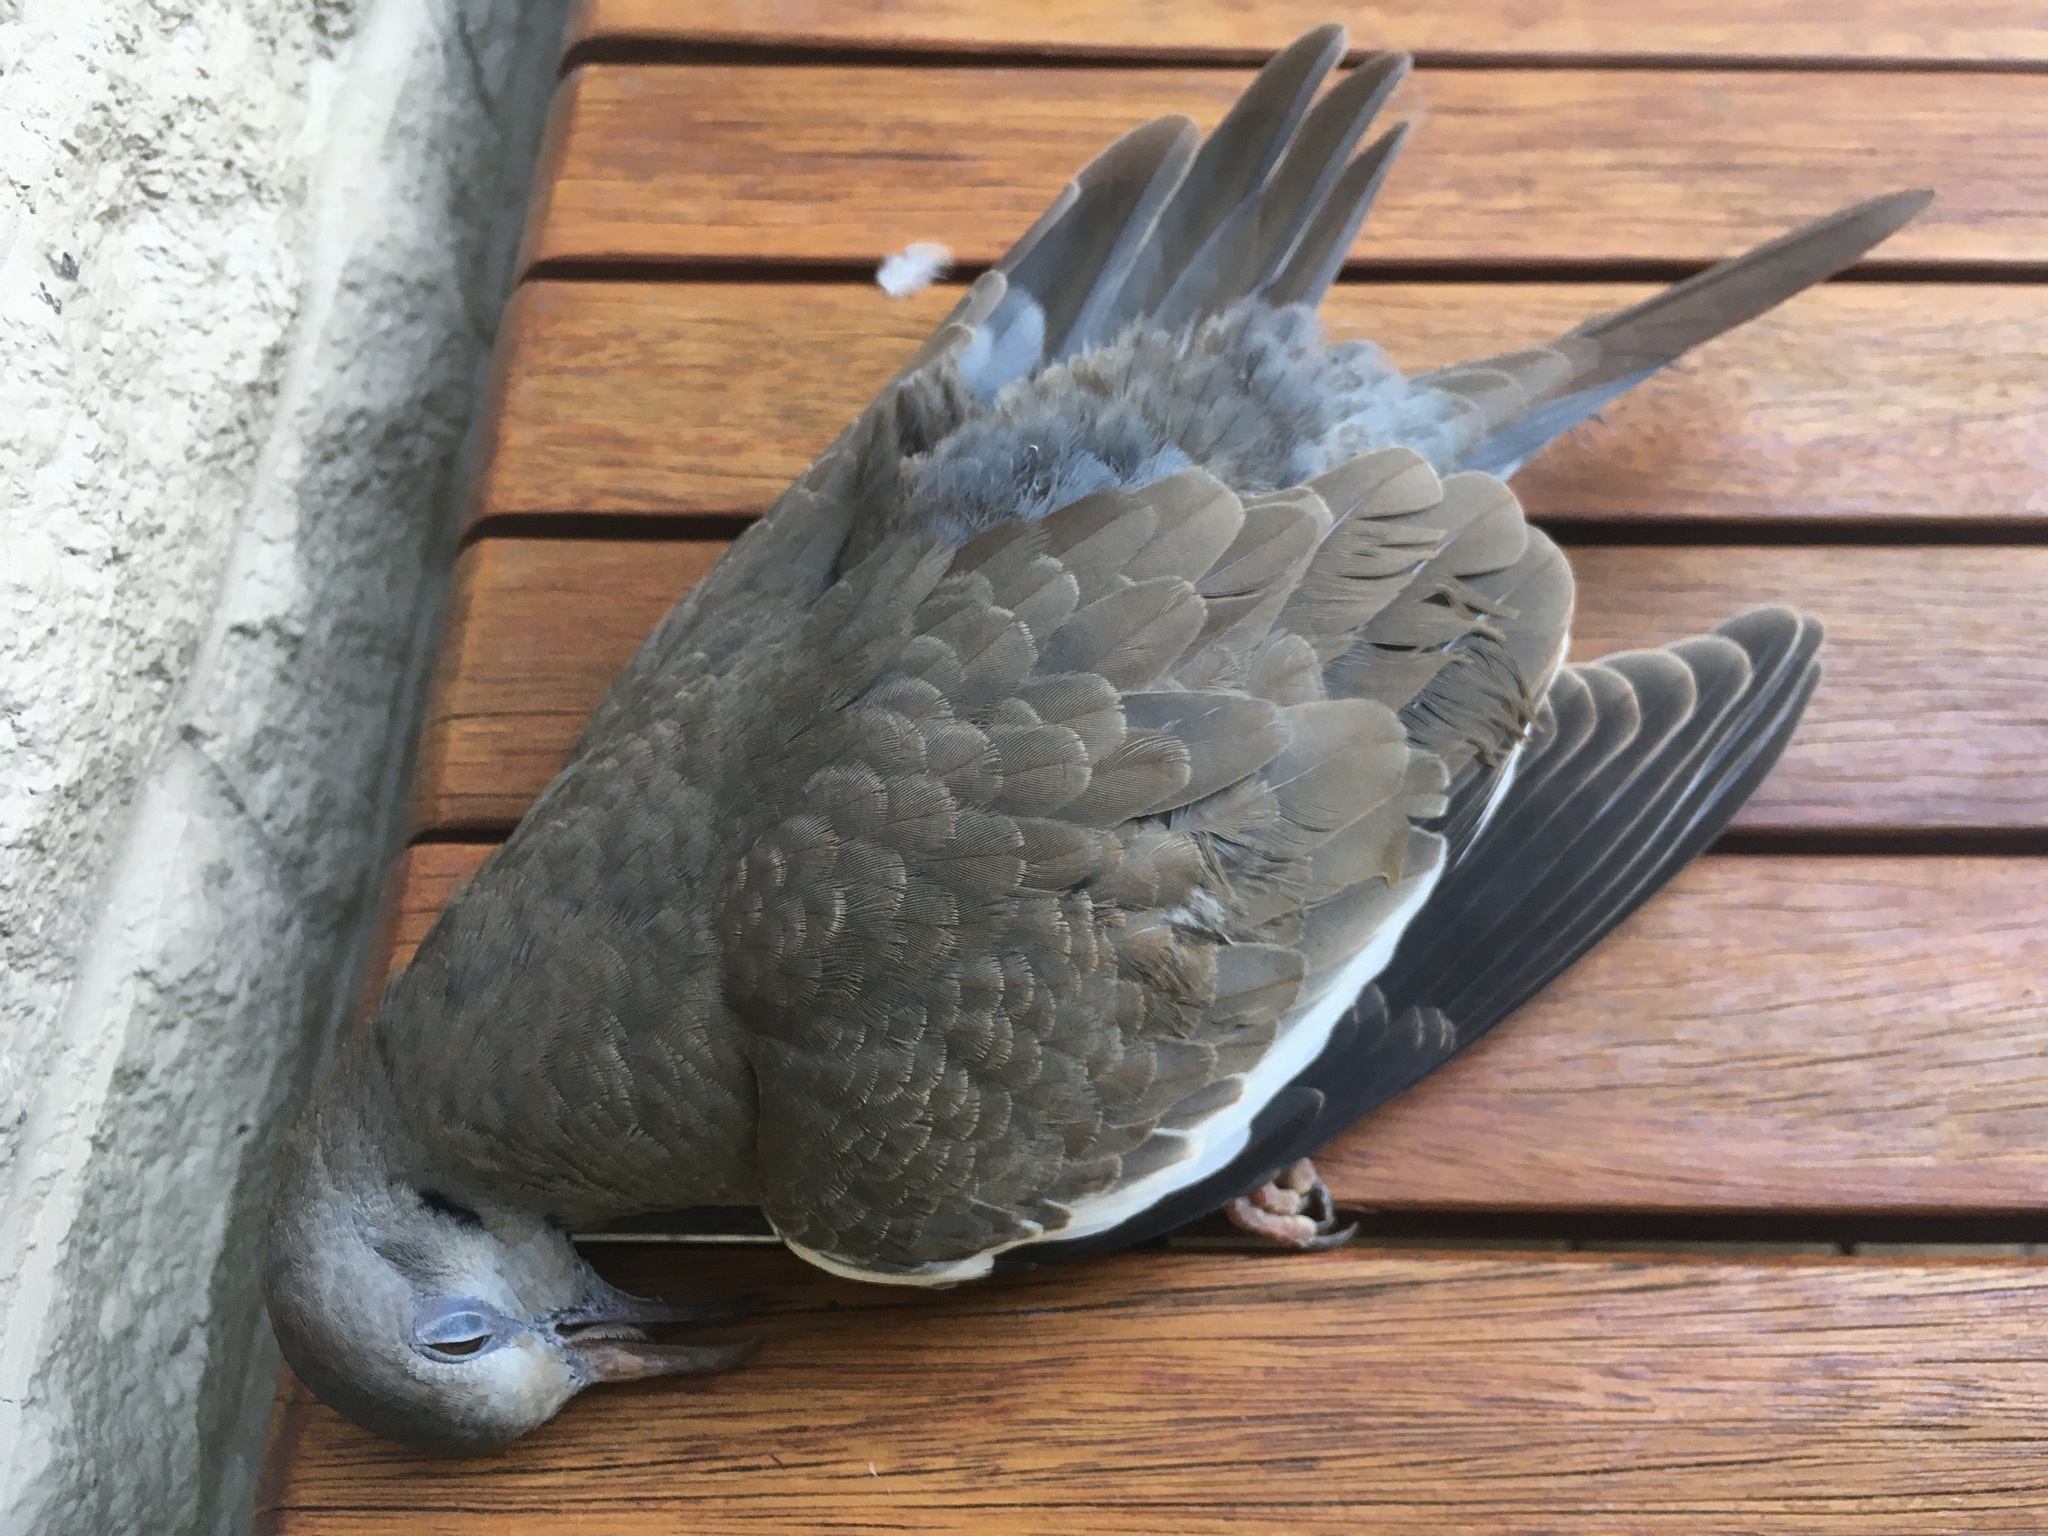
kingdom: Animalia
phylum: Chordata
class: Aves
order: Columbiformes
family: Columbidae
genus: Zenaida
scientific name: Zenaida asiatica
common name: White-winged dove
